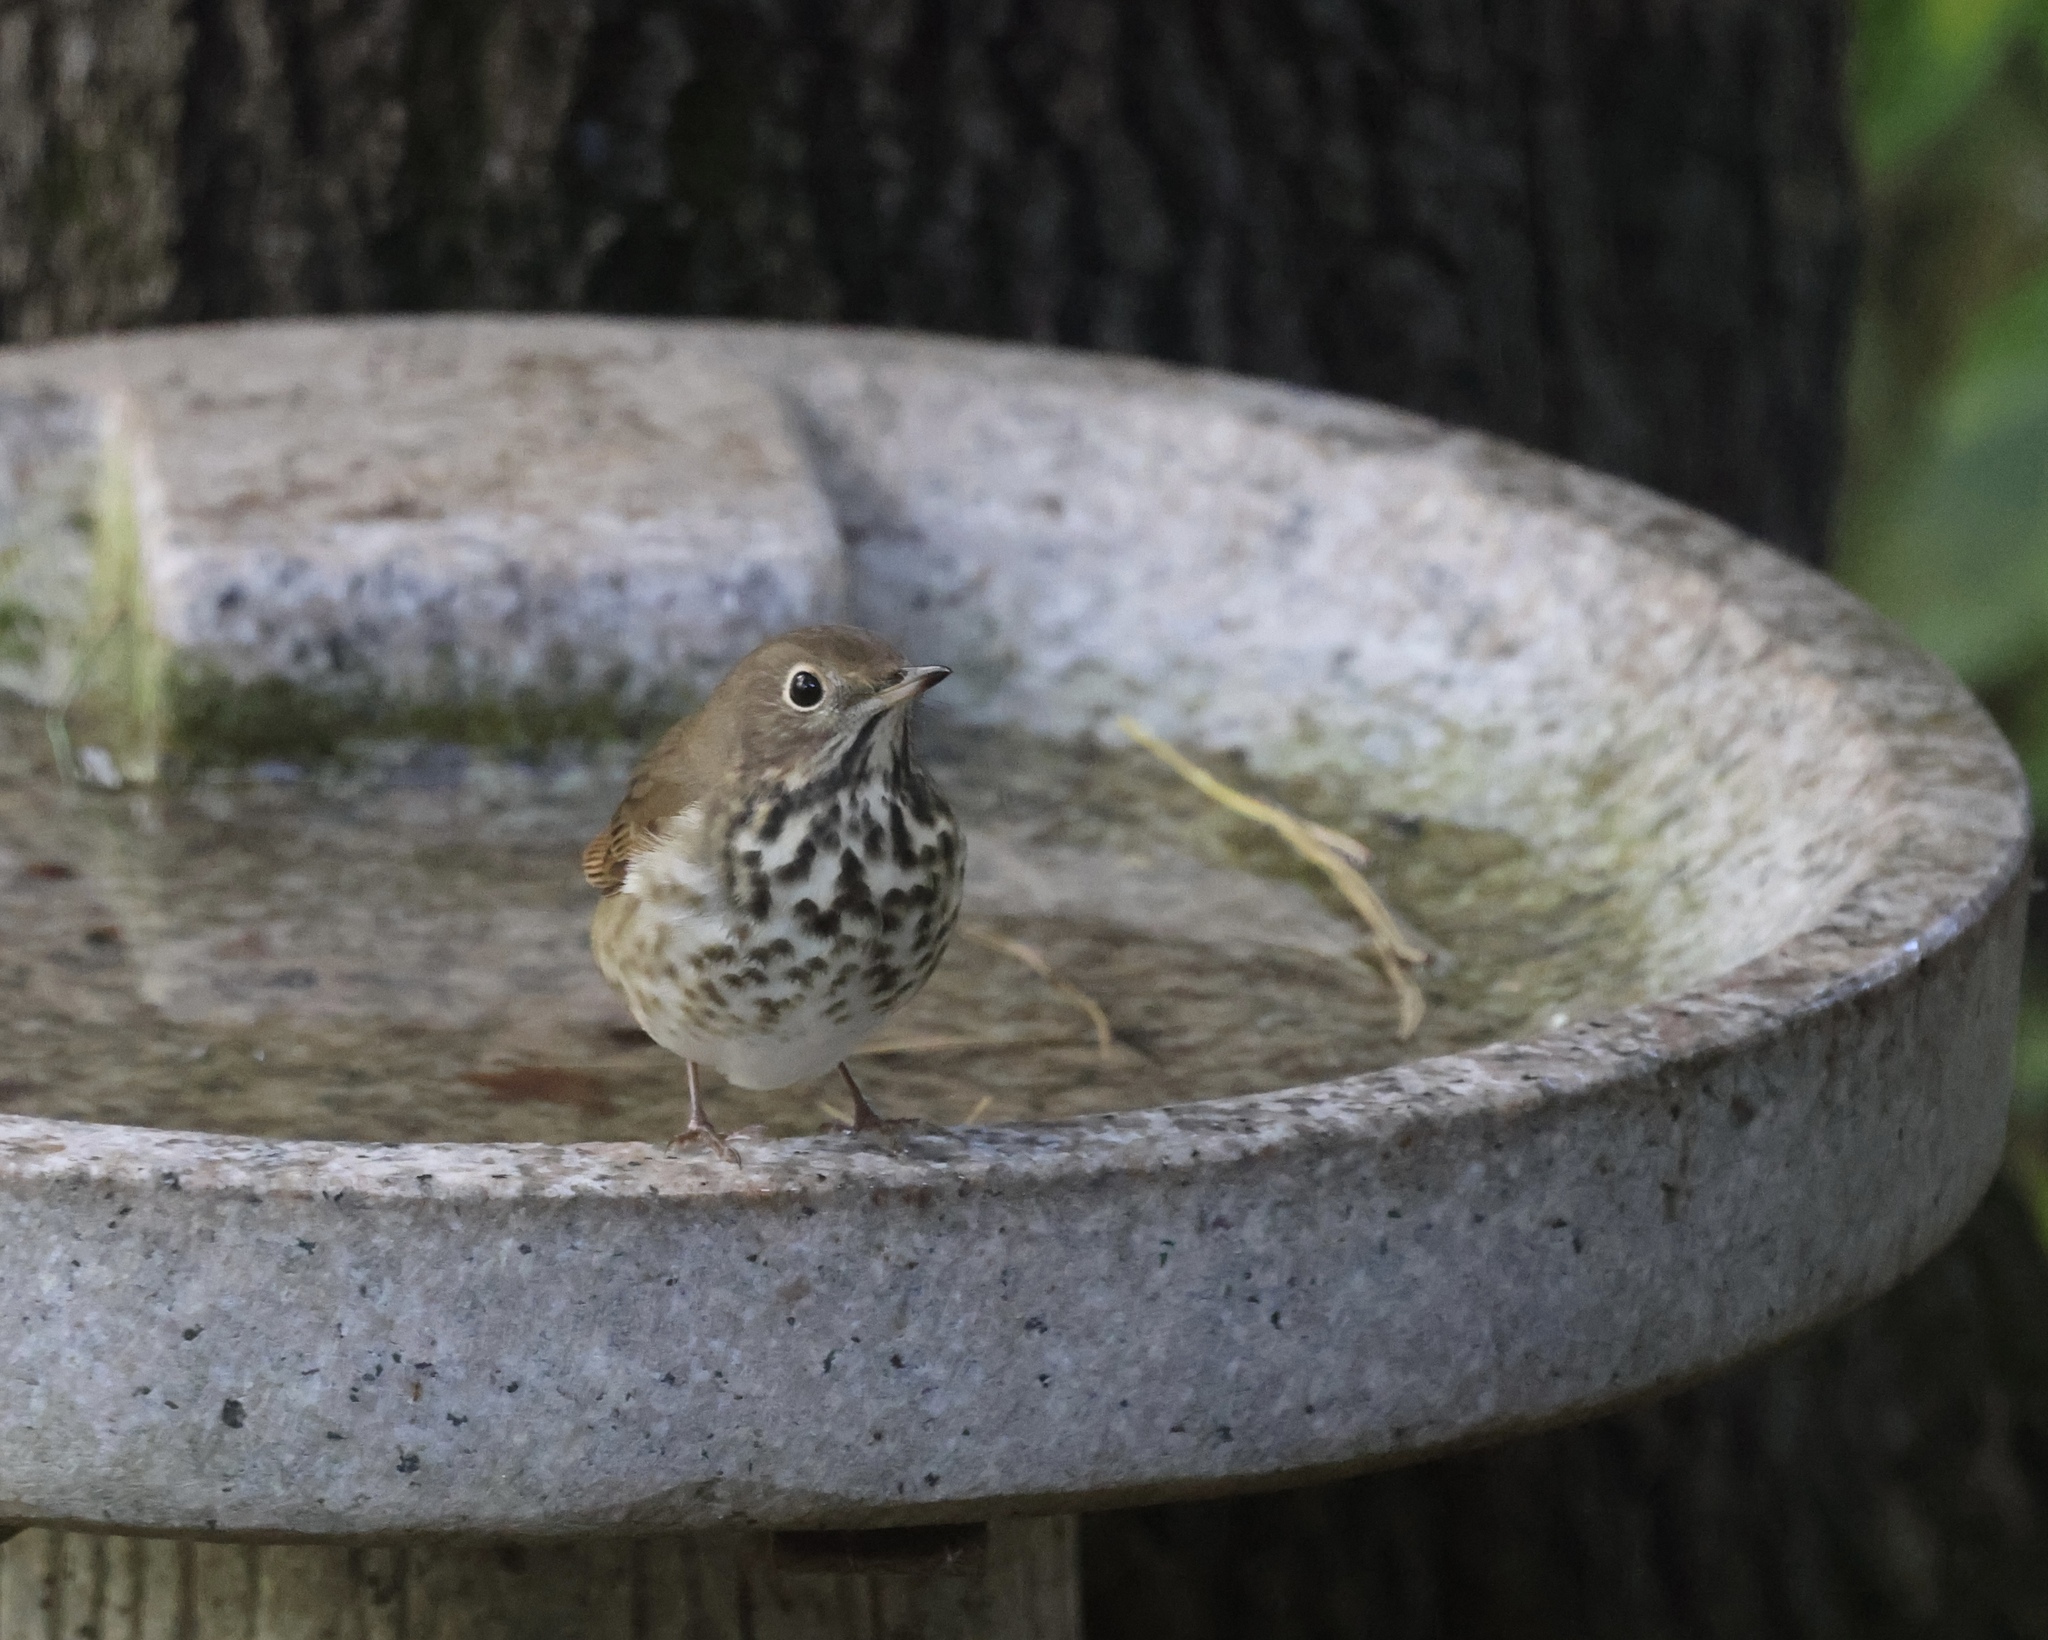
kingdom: Animalia
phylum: Chordata
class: Aves
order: Passeriformes
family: Turdidae
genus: Catharus
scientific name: Catharus guttatus
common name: Hermit thrush
